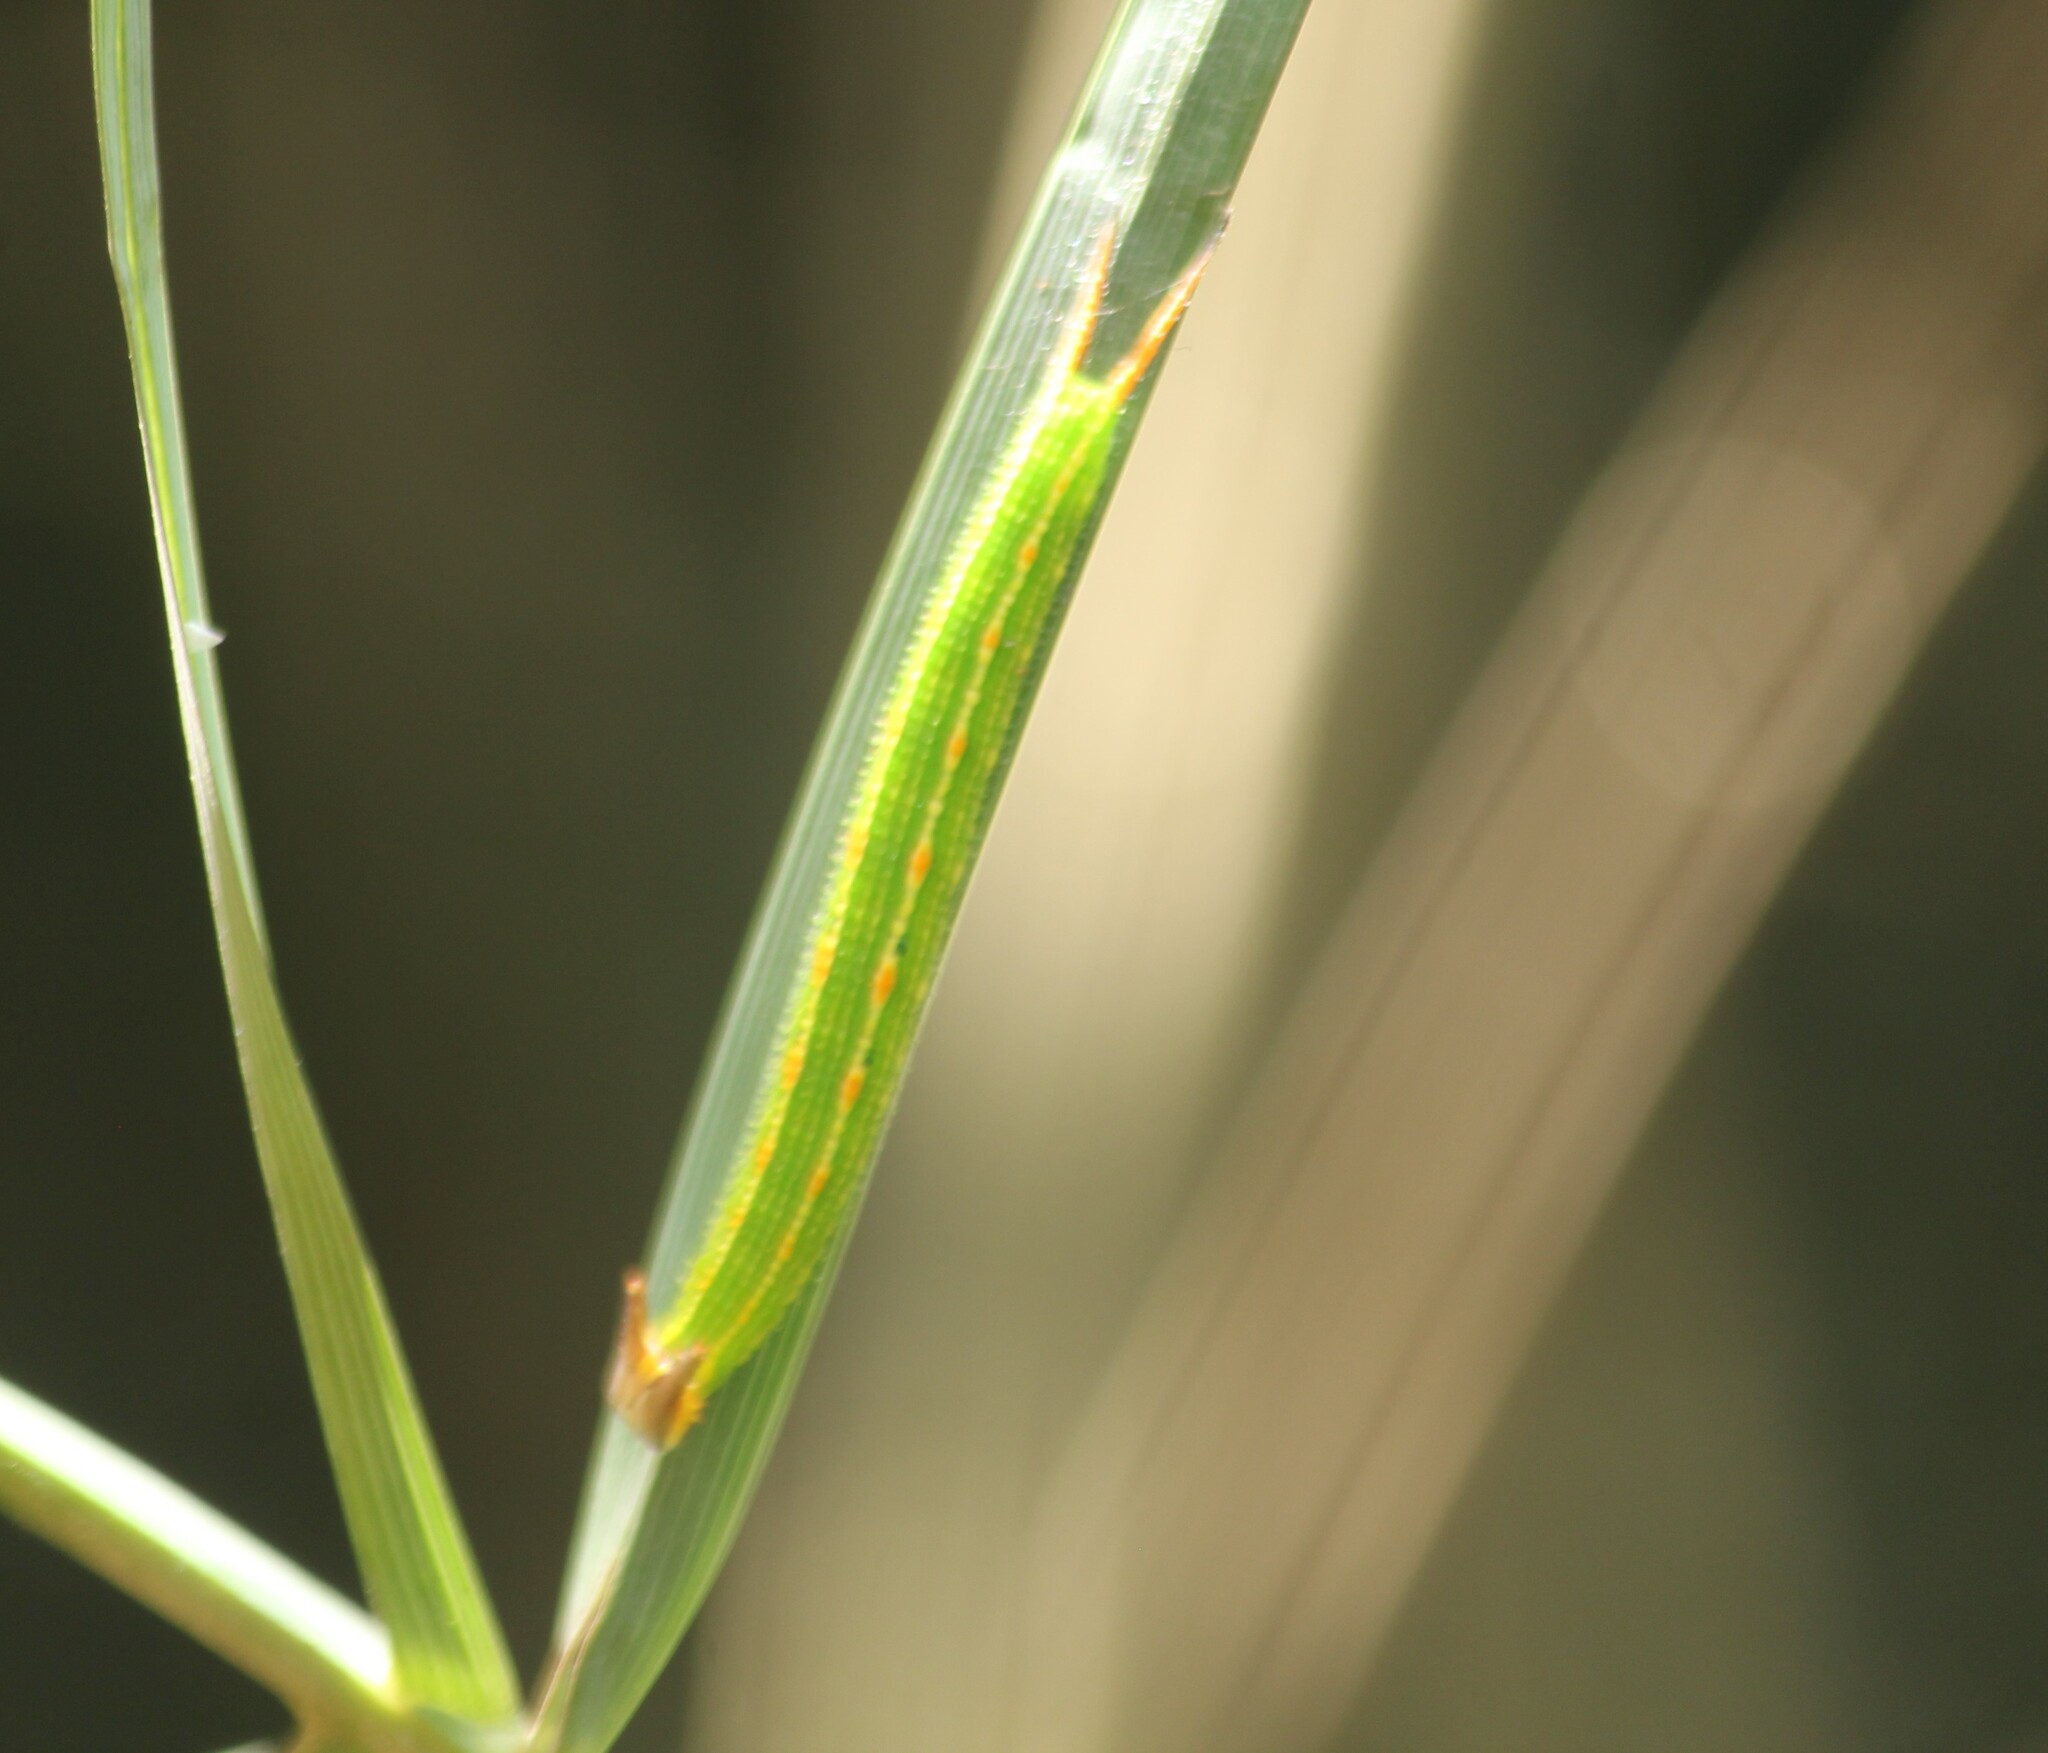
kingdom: Animalia
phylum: Arthropoda
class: Insecta
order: Lepidoptera
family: Nymphalidae
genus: Elymnias
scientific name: Elymnias caudata
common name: Tailed palmfly
